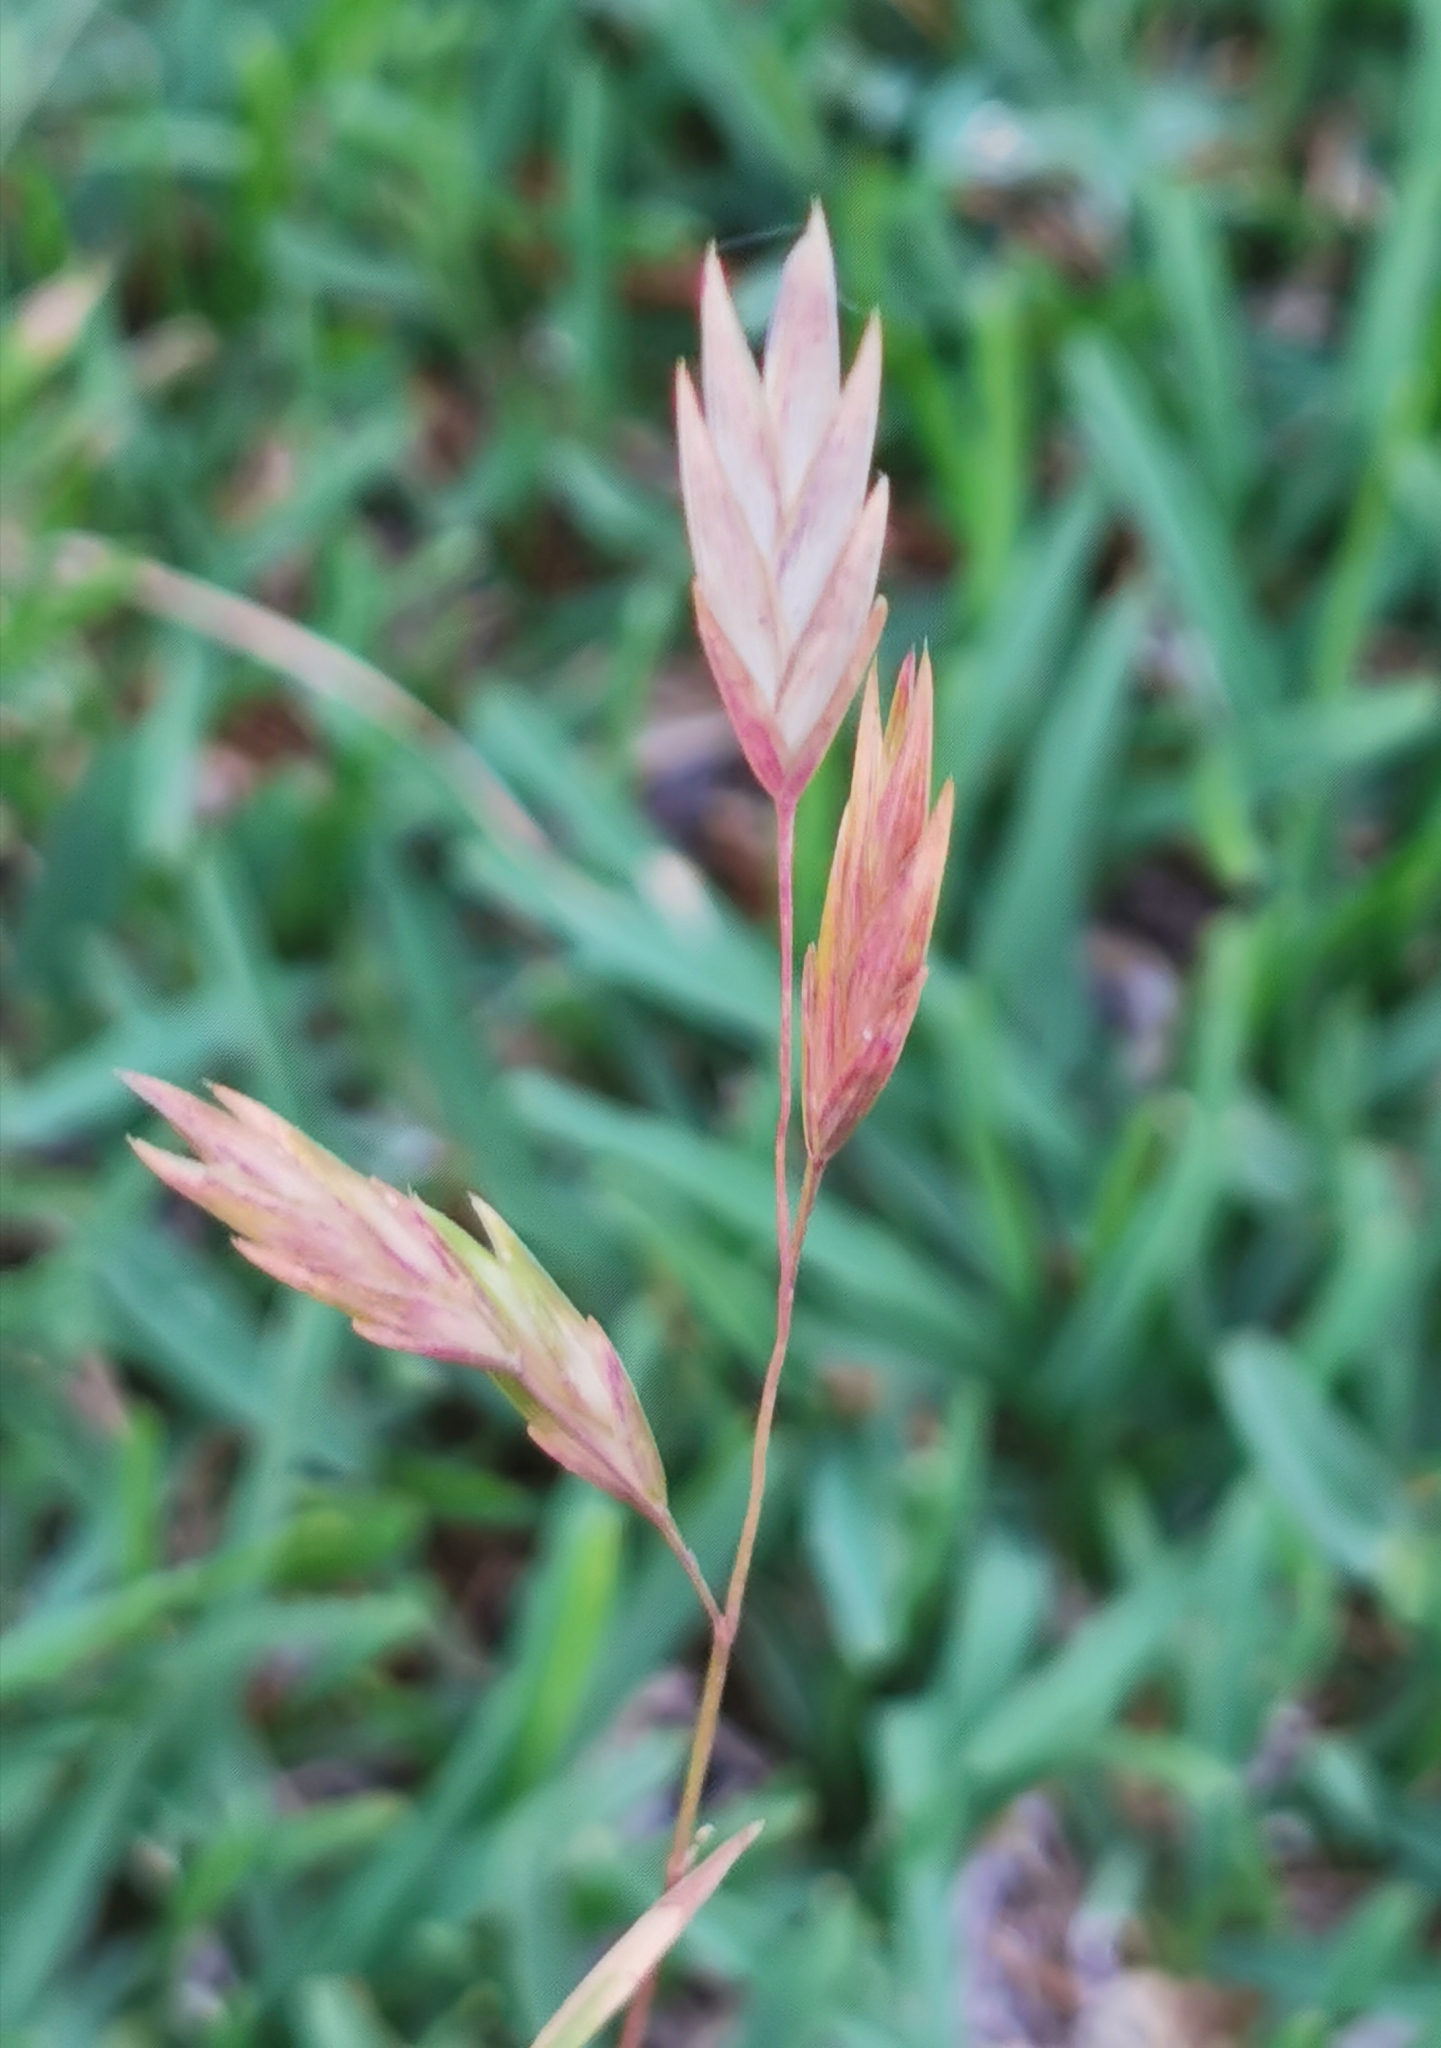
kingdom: Plantae
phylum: Tracheophyta
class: Liliopsida
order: Poales
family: Poaceae
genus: Bromus
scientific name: Bromus catharticus
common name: Rescuegrass
